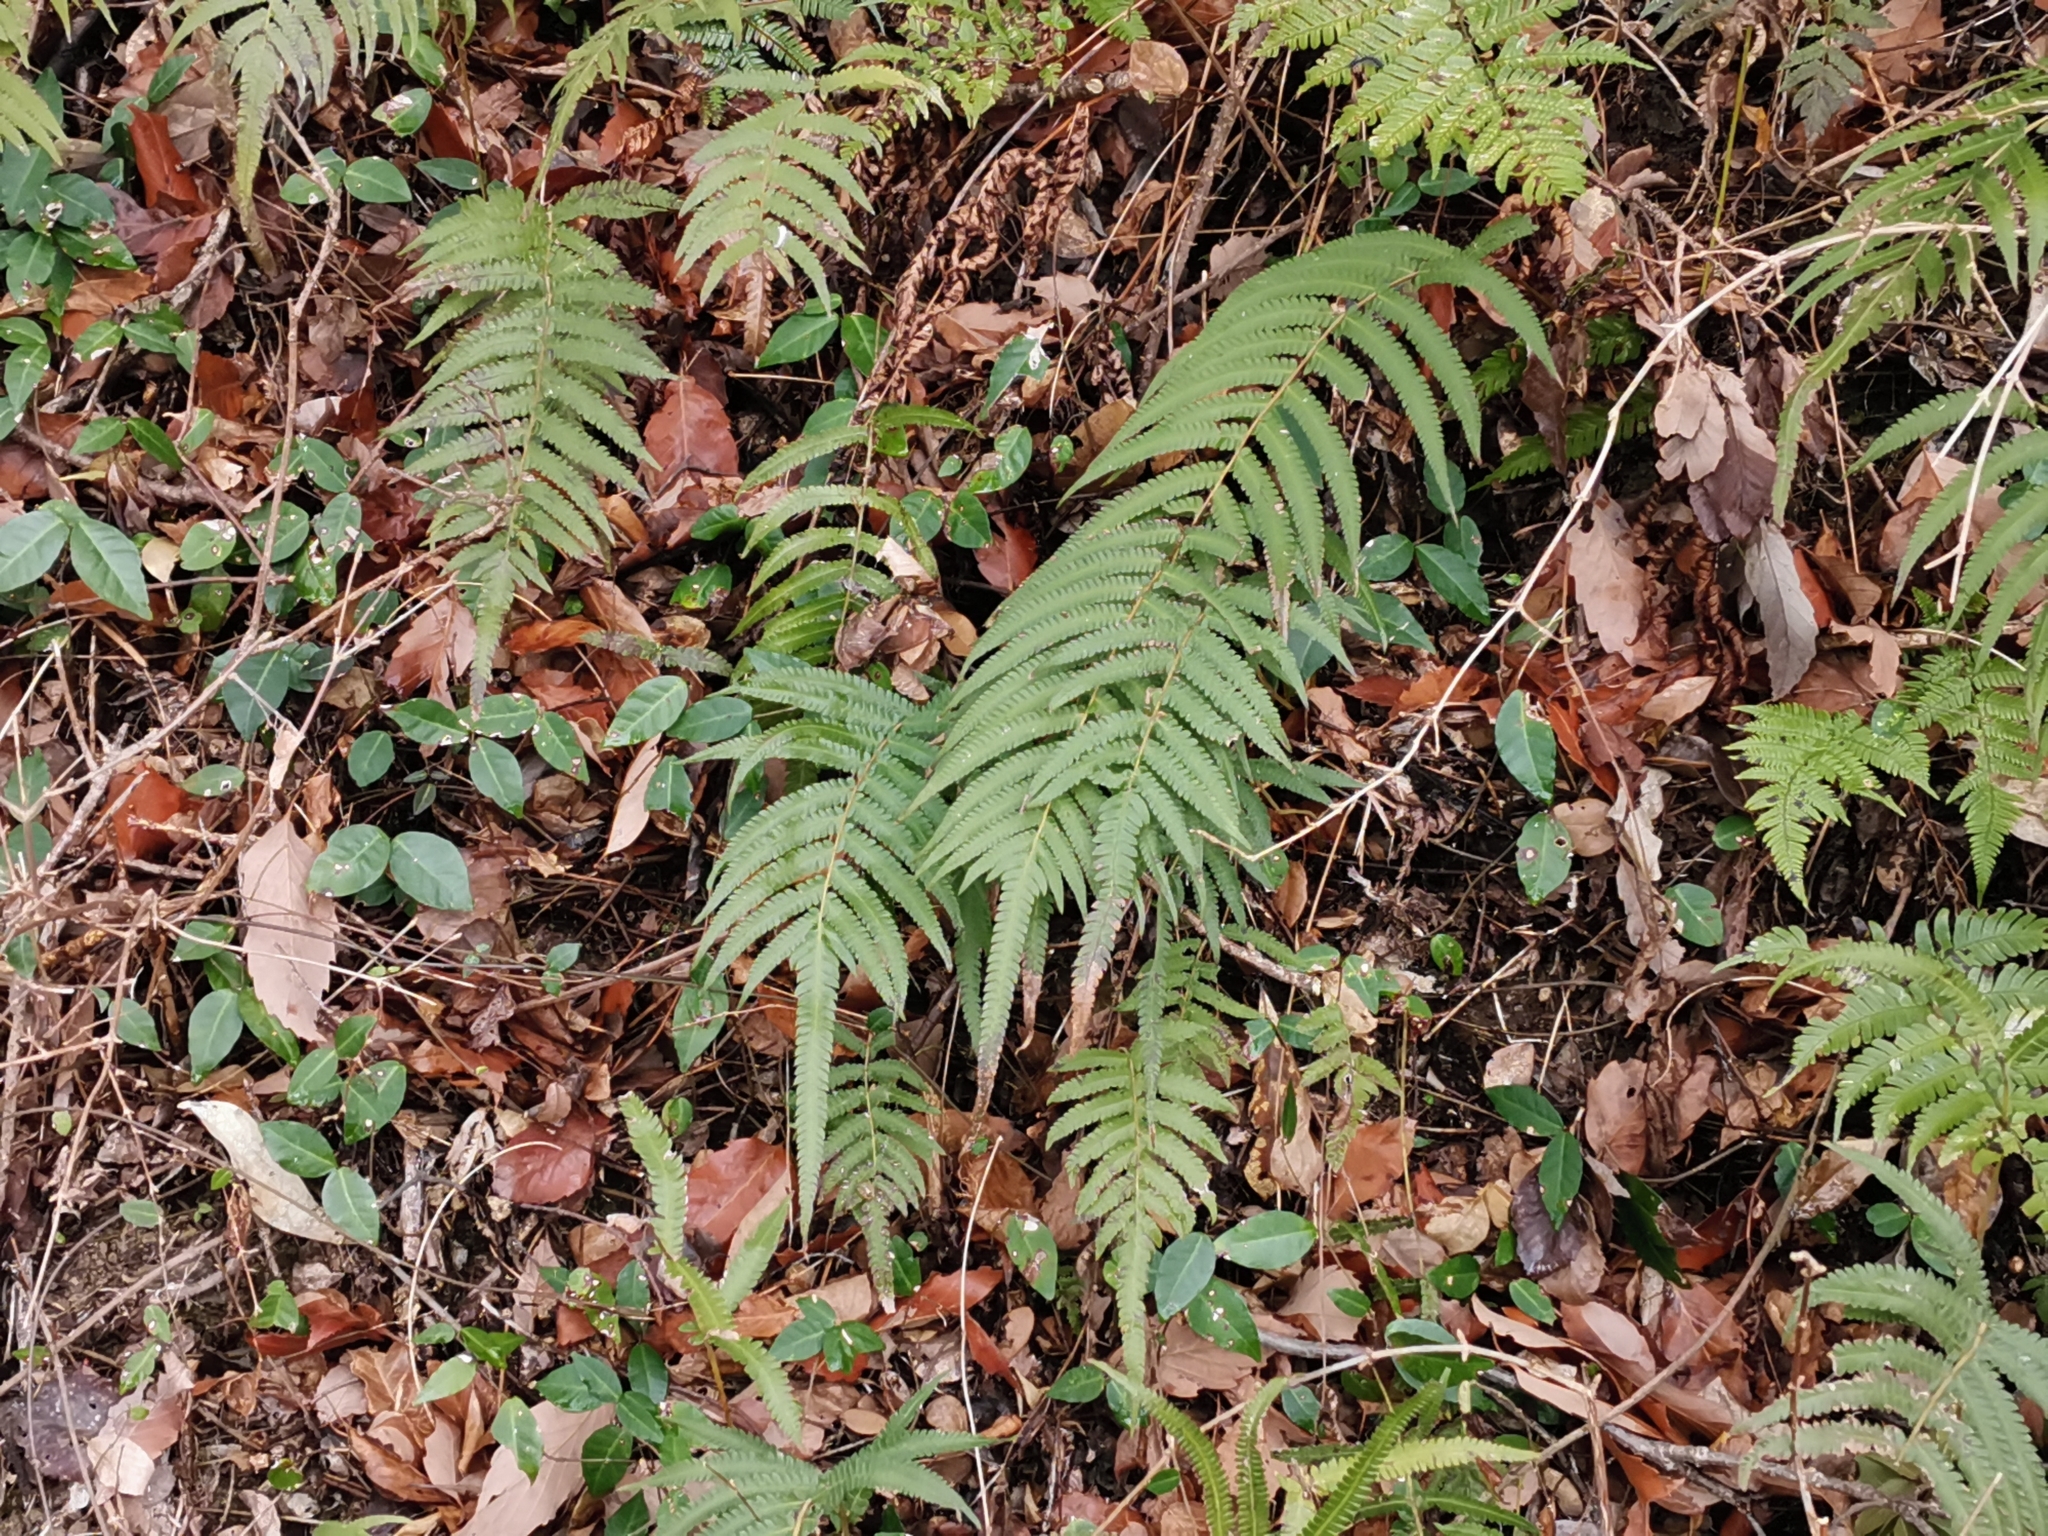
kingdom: Plantae
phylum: Tracheophyta
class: Polypodiopsida
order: Polypodiales
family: Thelypteridaceae
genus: Christella
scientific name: Christella acuminata
